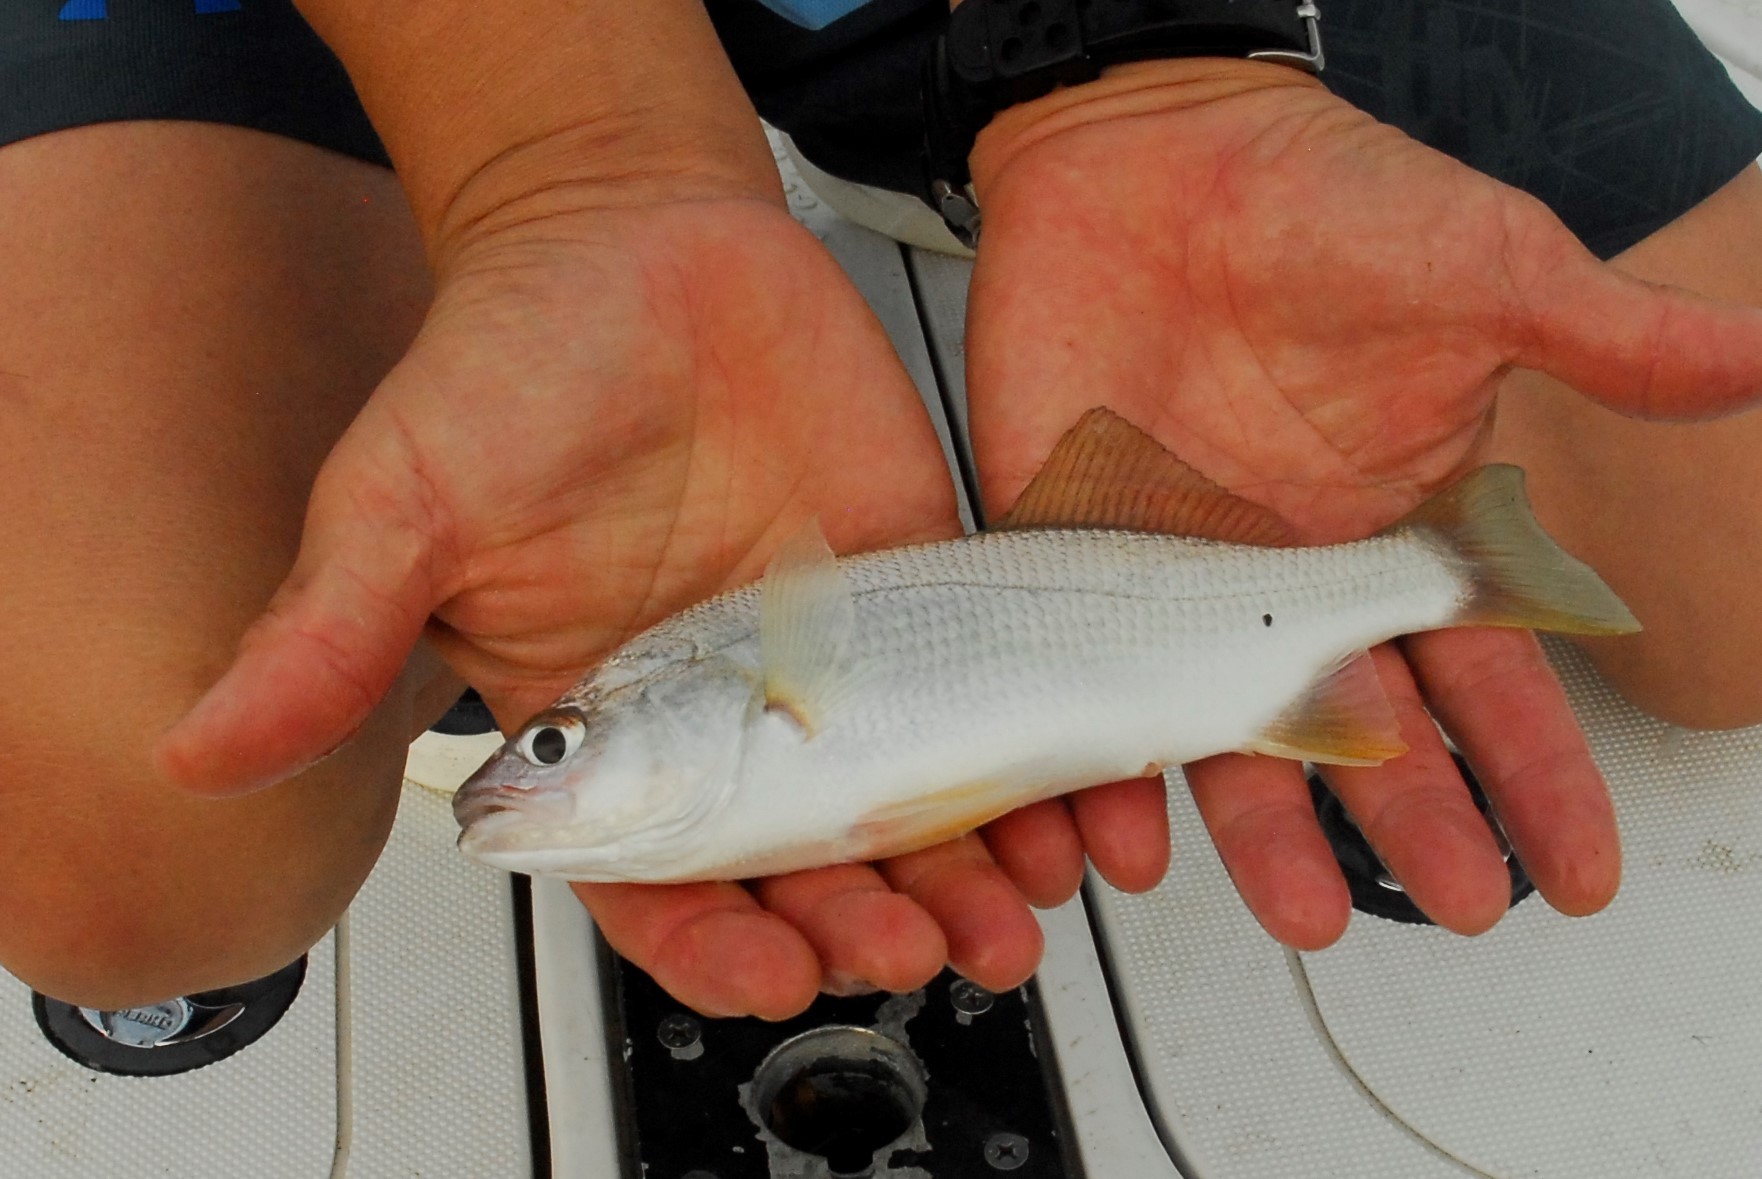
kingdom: Animalia
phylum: Chordata
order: Perciformes
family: Sciaenidae
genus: Bairdiella
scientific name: Bairdiella chrysoura
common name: Silver perch
